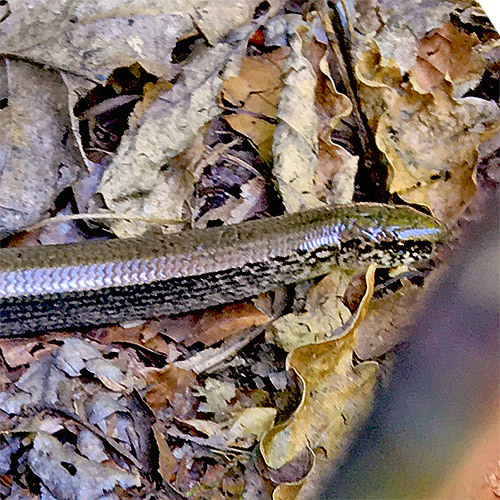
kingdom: Animalia
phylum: Chordata
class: Squamata
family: Anguidae
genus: Anguis
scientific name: Anguis fragilis
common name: Slow worm
